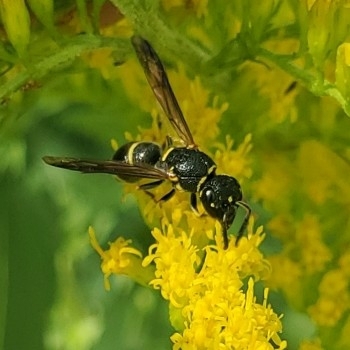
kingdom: Animalia
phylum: Arthropoda
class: Insecta
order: Hymenoptera
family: Eumenidae
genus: Parancistrocerus
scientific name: Parancistrocerus pensylvanicus
